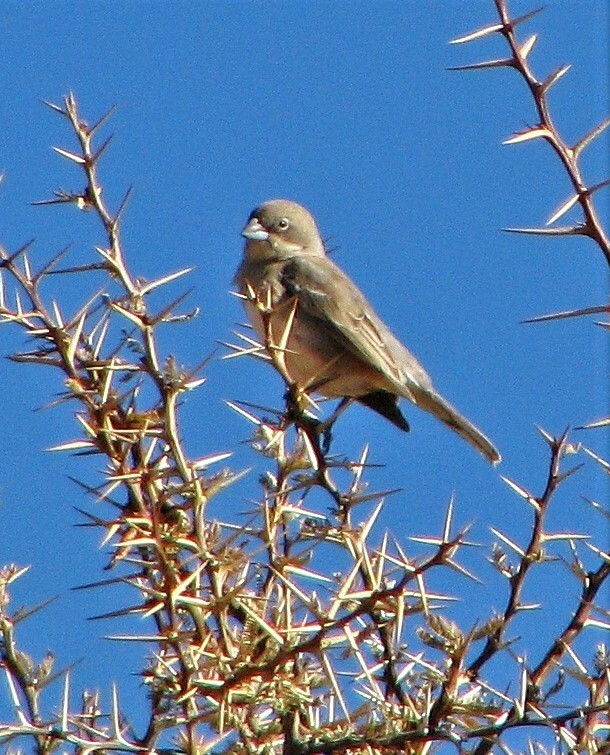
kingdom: Animalia
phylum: Chordata
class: Aves
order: Passeriformes
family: Thraupidae
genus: Diuca
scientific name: Diuca diuca
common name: Common diuca finch
